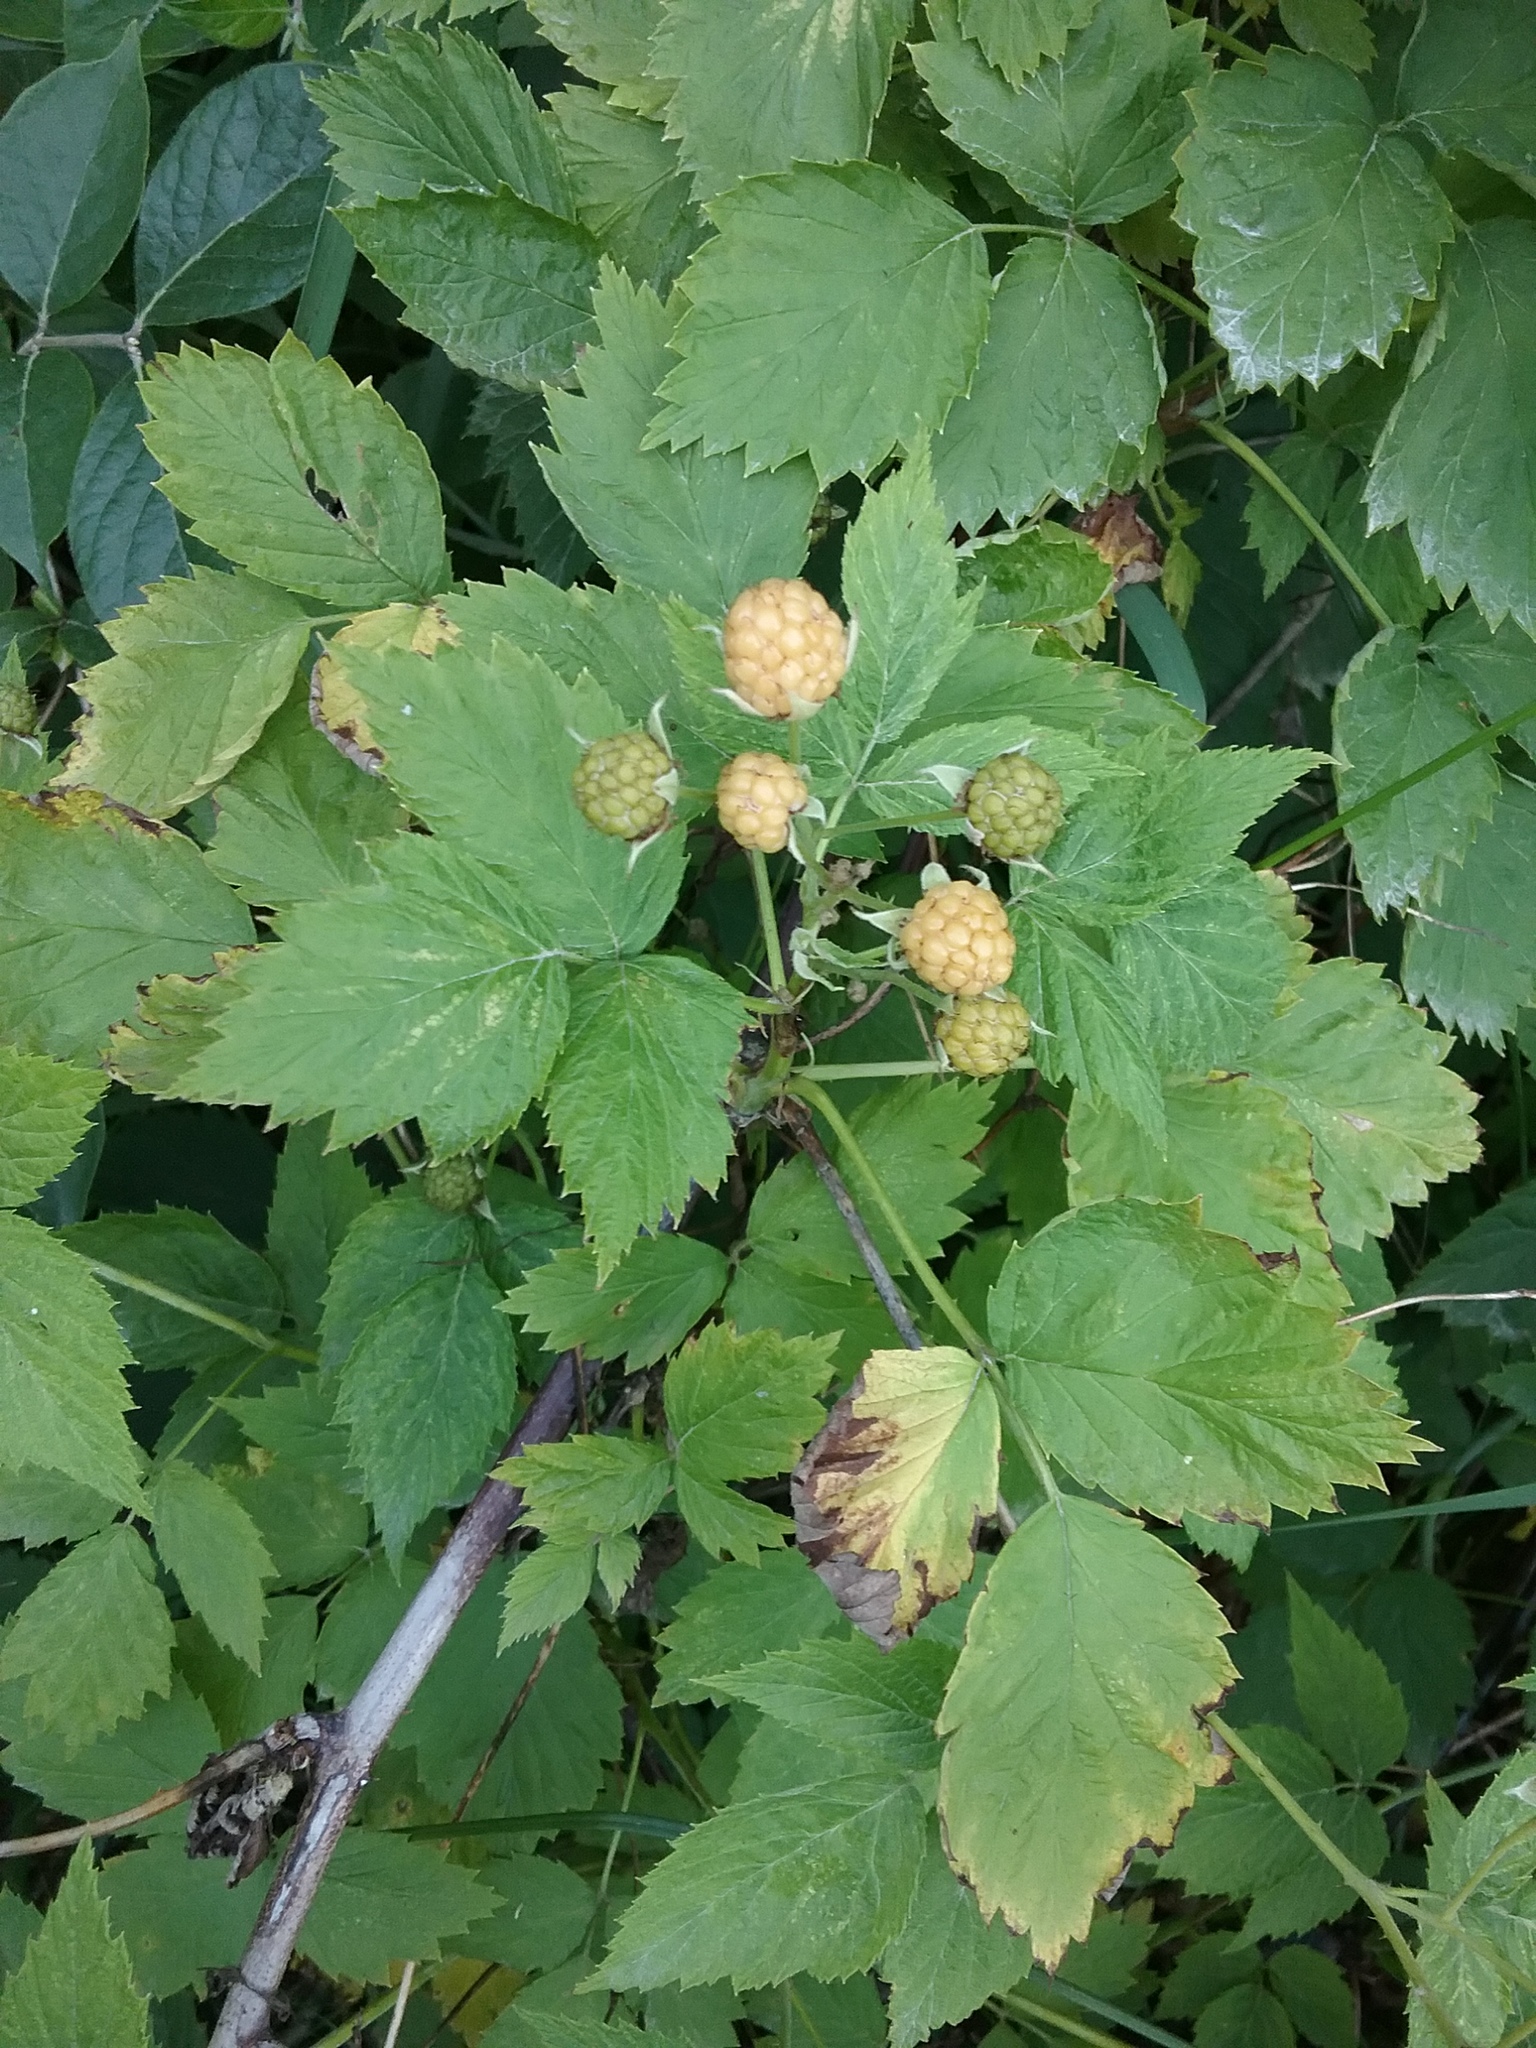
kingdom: Plantae
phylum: Tracheophyta
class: Magnoliopsida
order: Rosales
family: Rosaceae
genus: Rubus
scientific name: Rubus occidentalis
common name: Black raspberry
